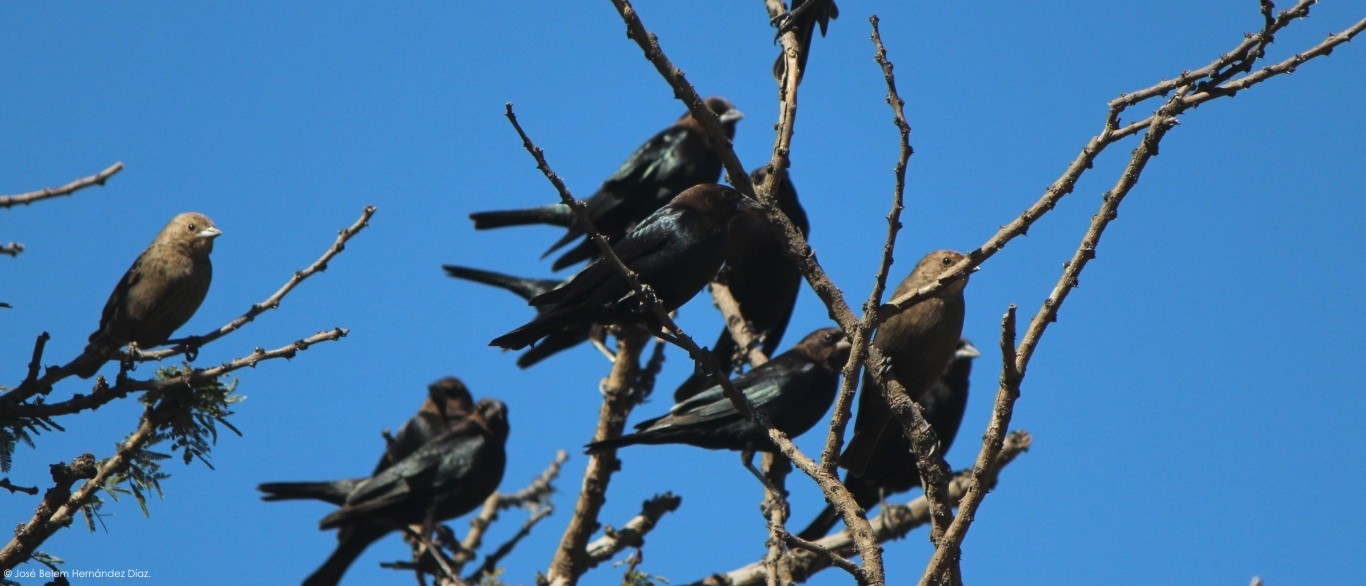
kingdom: Animalia
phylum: Chordata
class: Aves
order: Passeriformes
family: Icteridae
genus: Molothrus
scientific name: Molothrus ater
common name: Brown-headed cowbird
